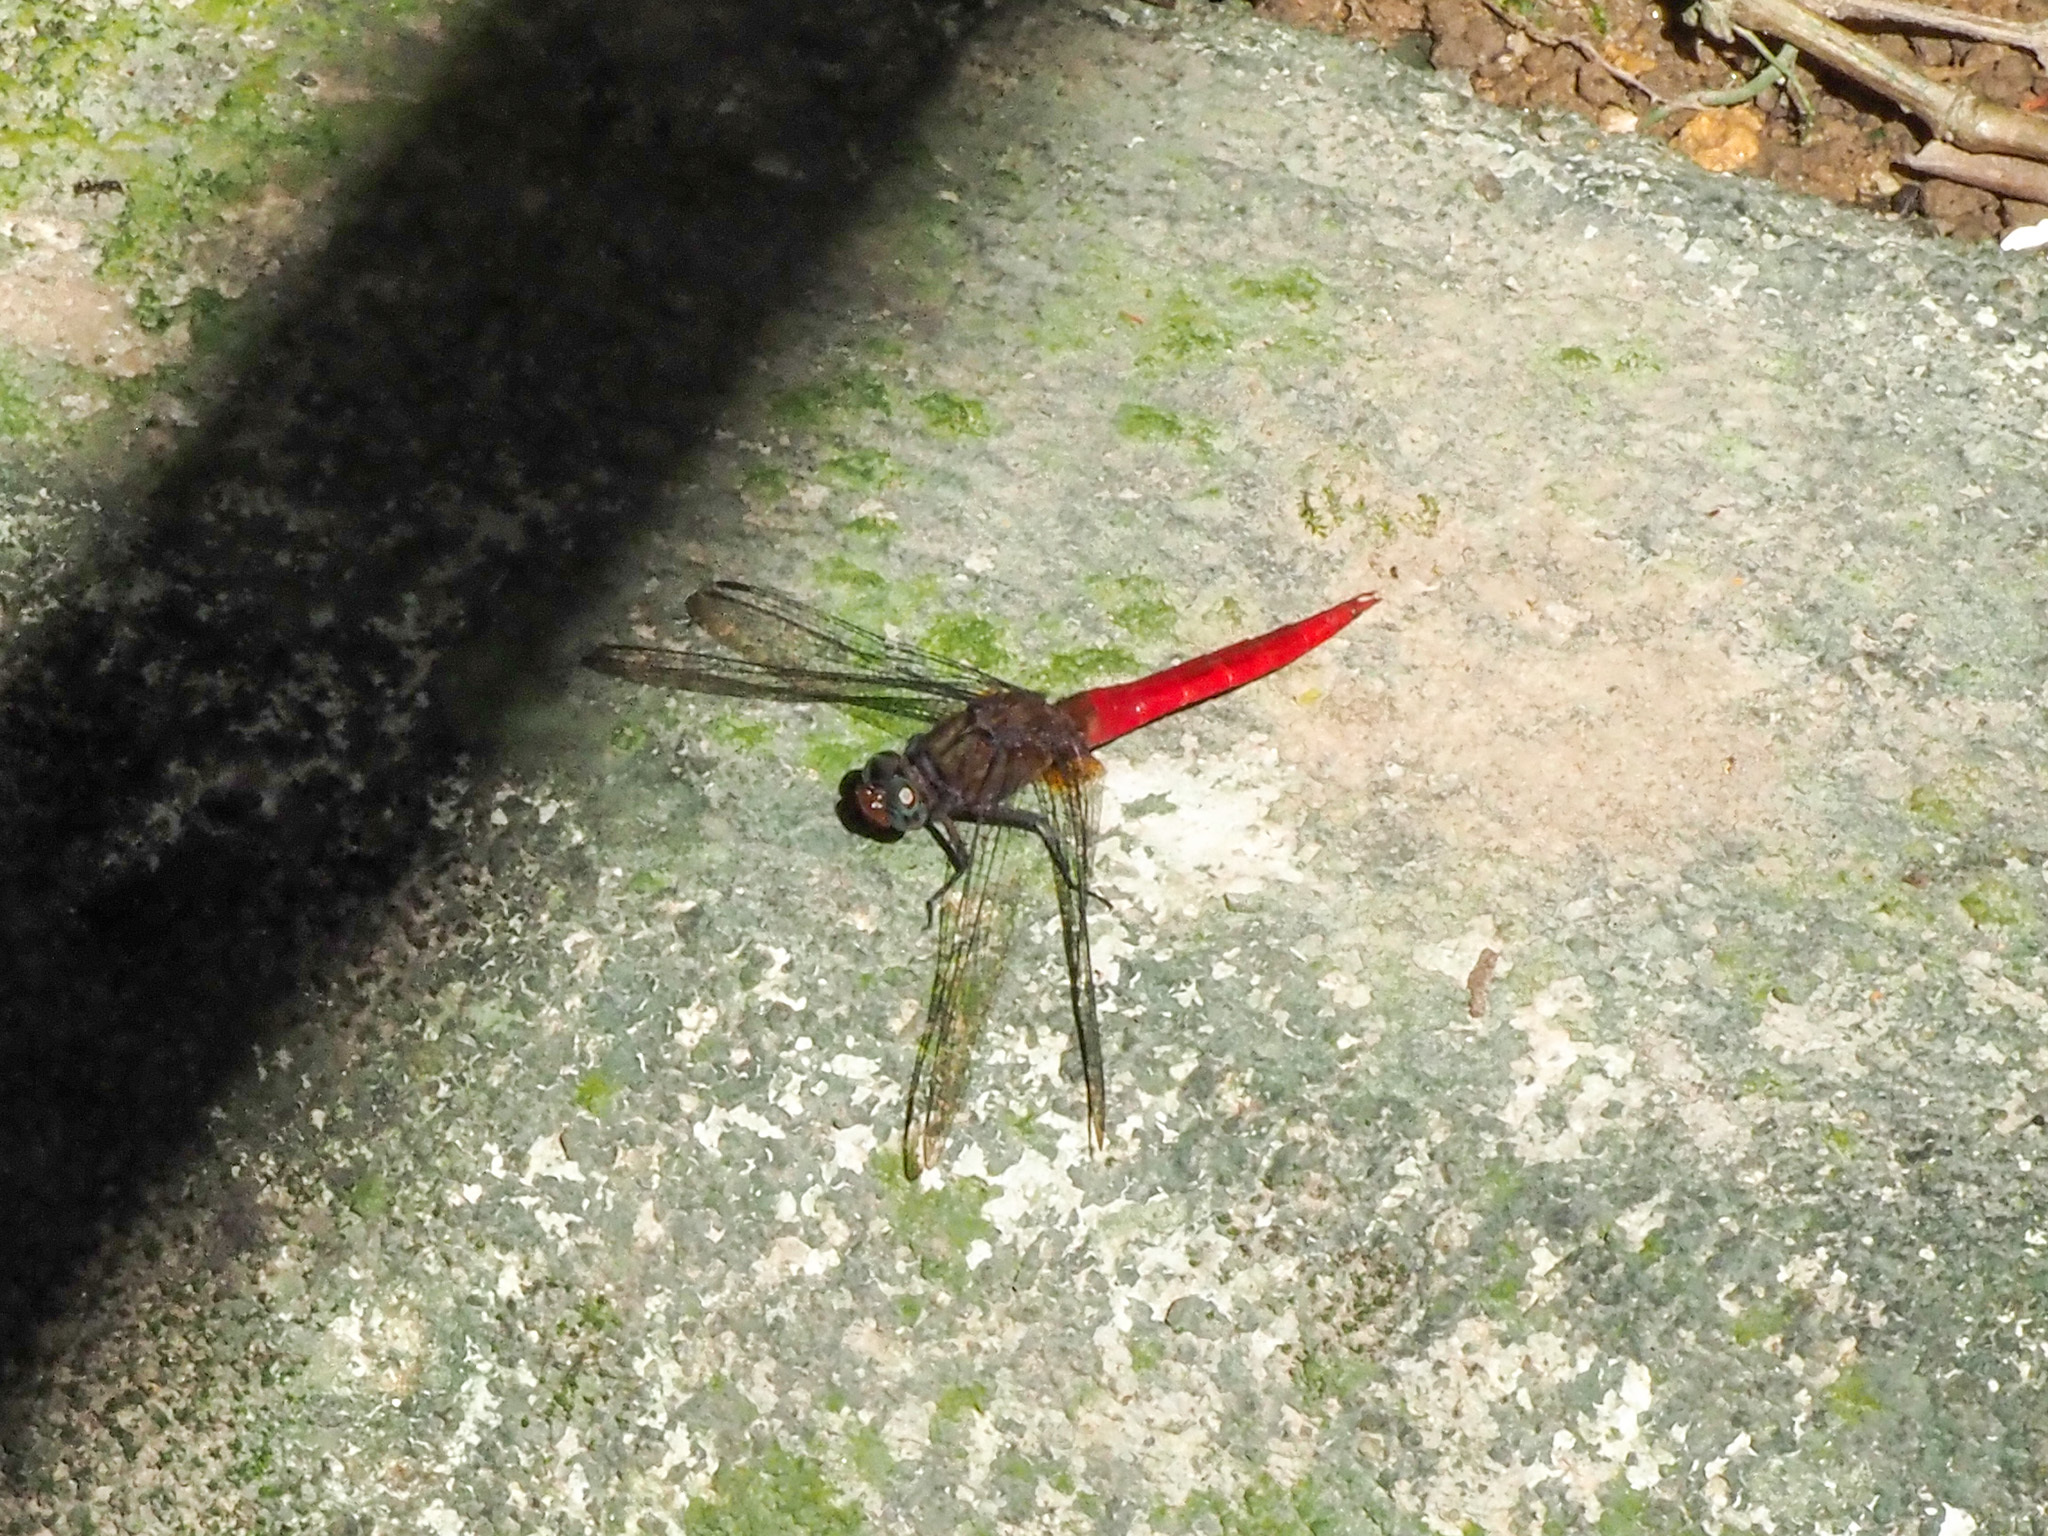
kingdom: Animalia
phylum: Arthropoda
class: Insecta
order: Odonata
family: Libellulidae
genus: Orthetrum
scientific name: Orthetrum chrysis
